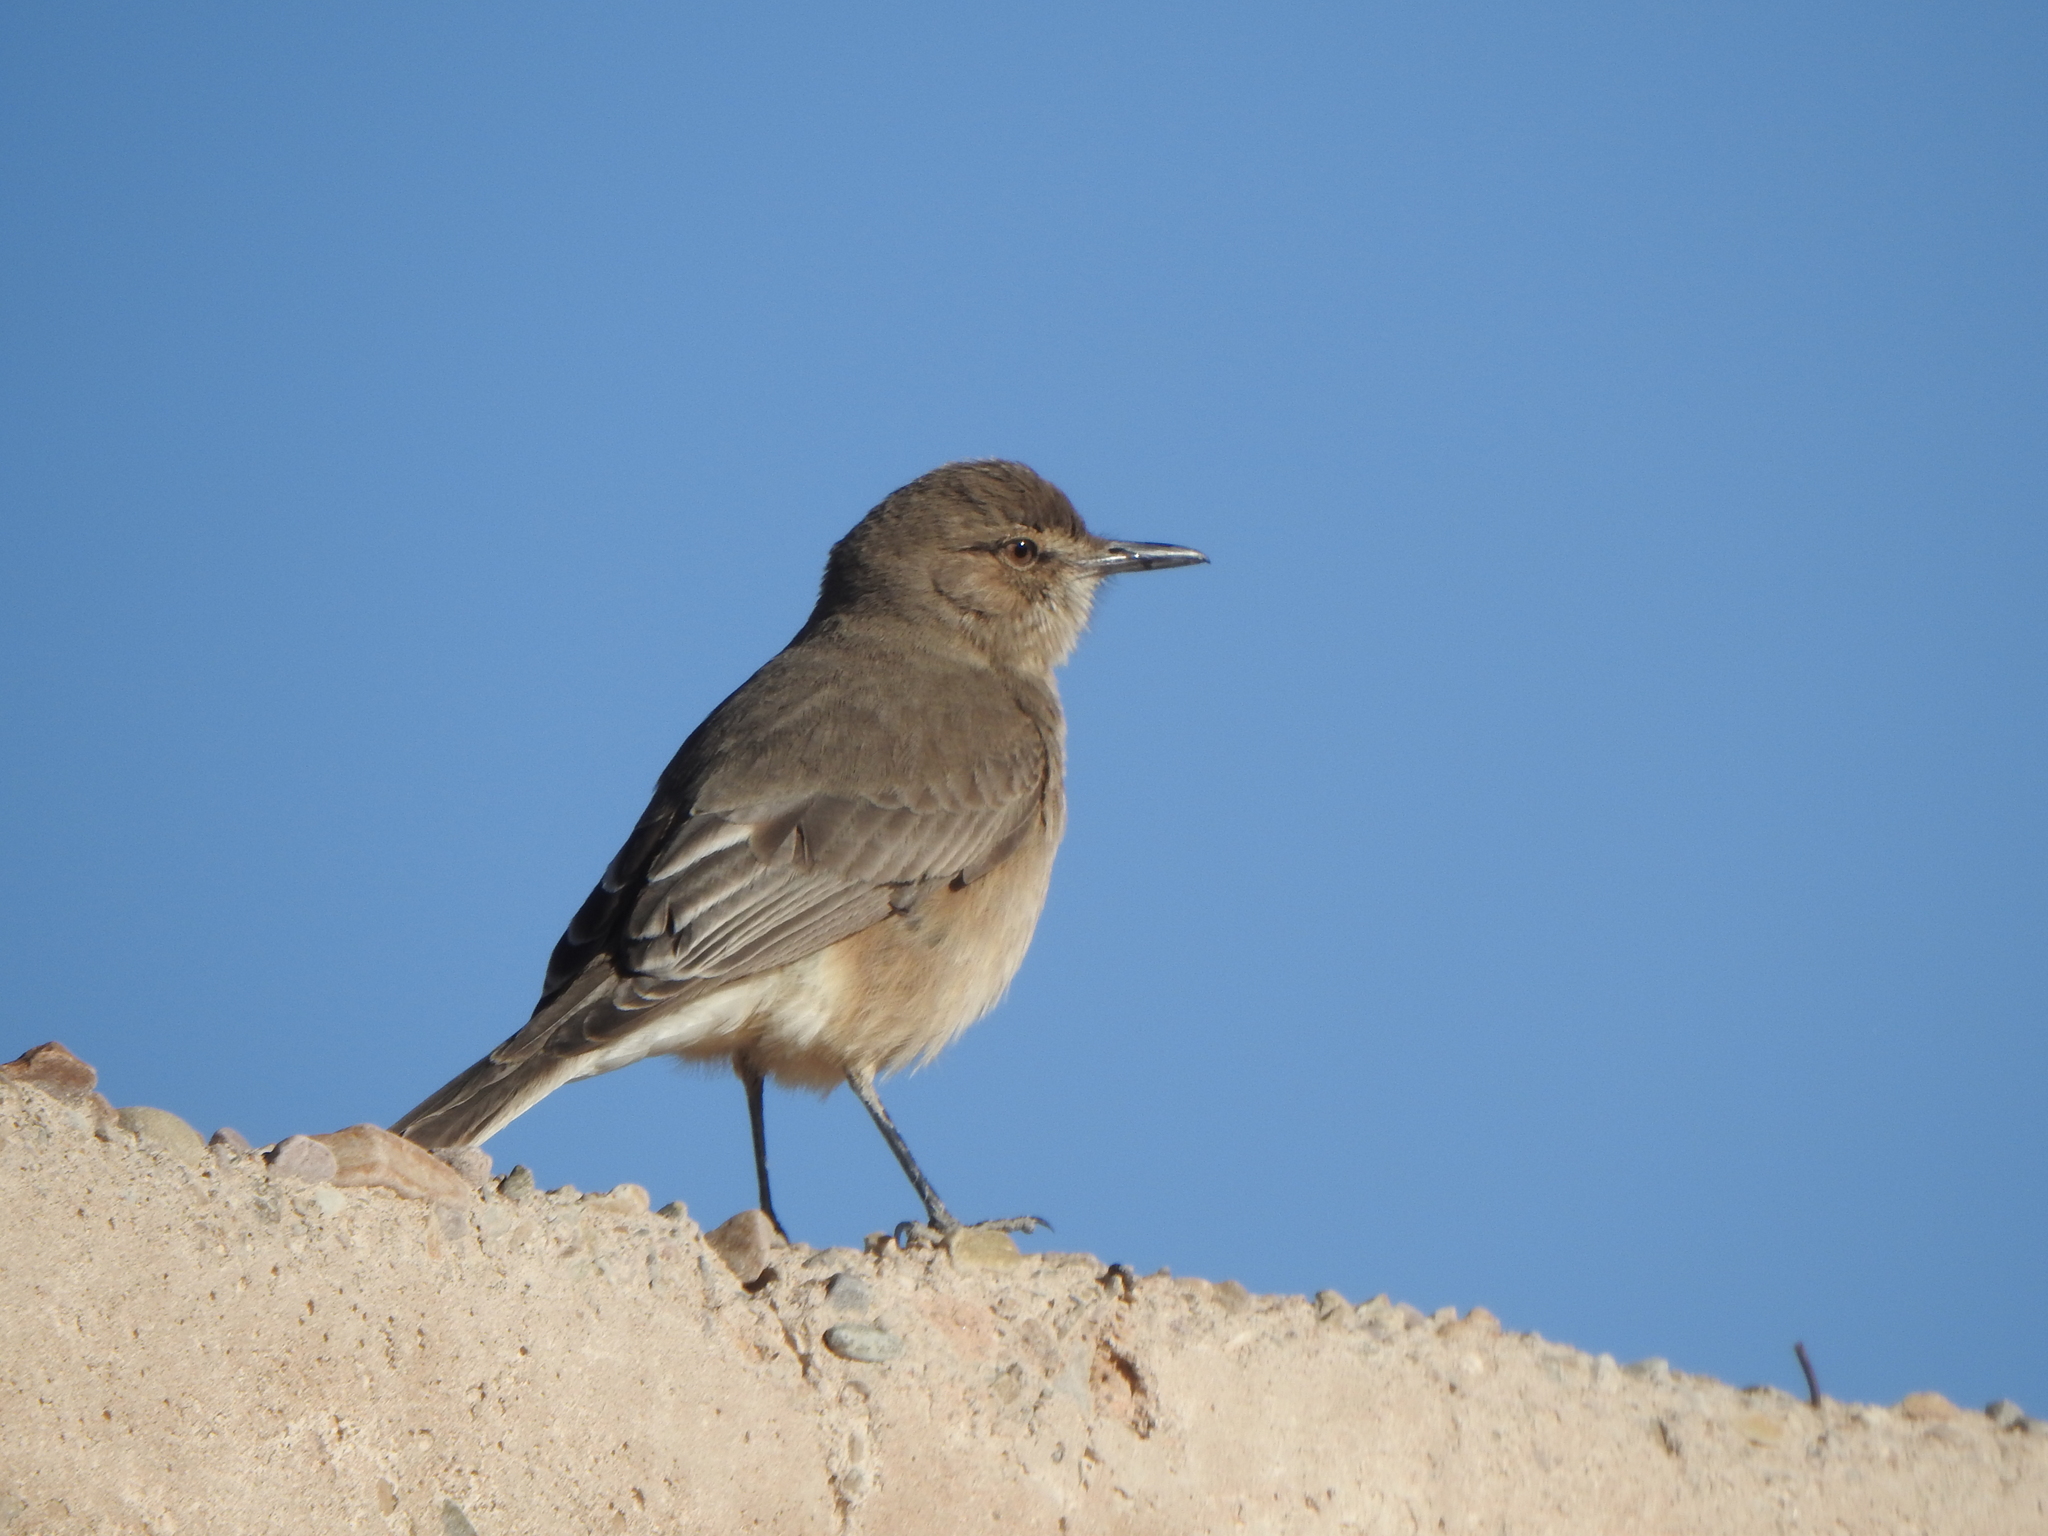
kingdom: Animalia
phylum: Chordata
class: Aves
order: Passeriformes
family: Tyrannidae
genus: Agriornis
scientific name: Agriornis montanus
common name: Black-billed shrike-tyrant
